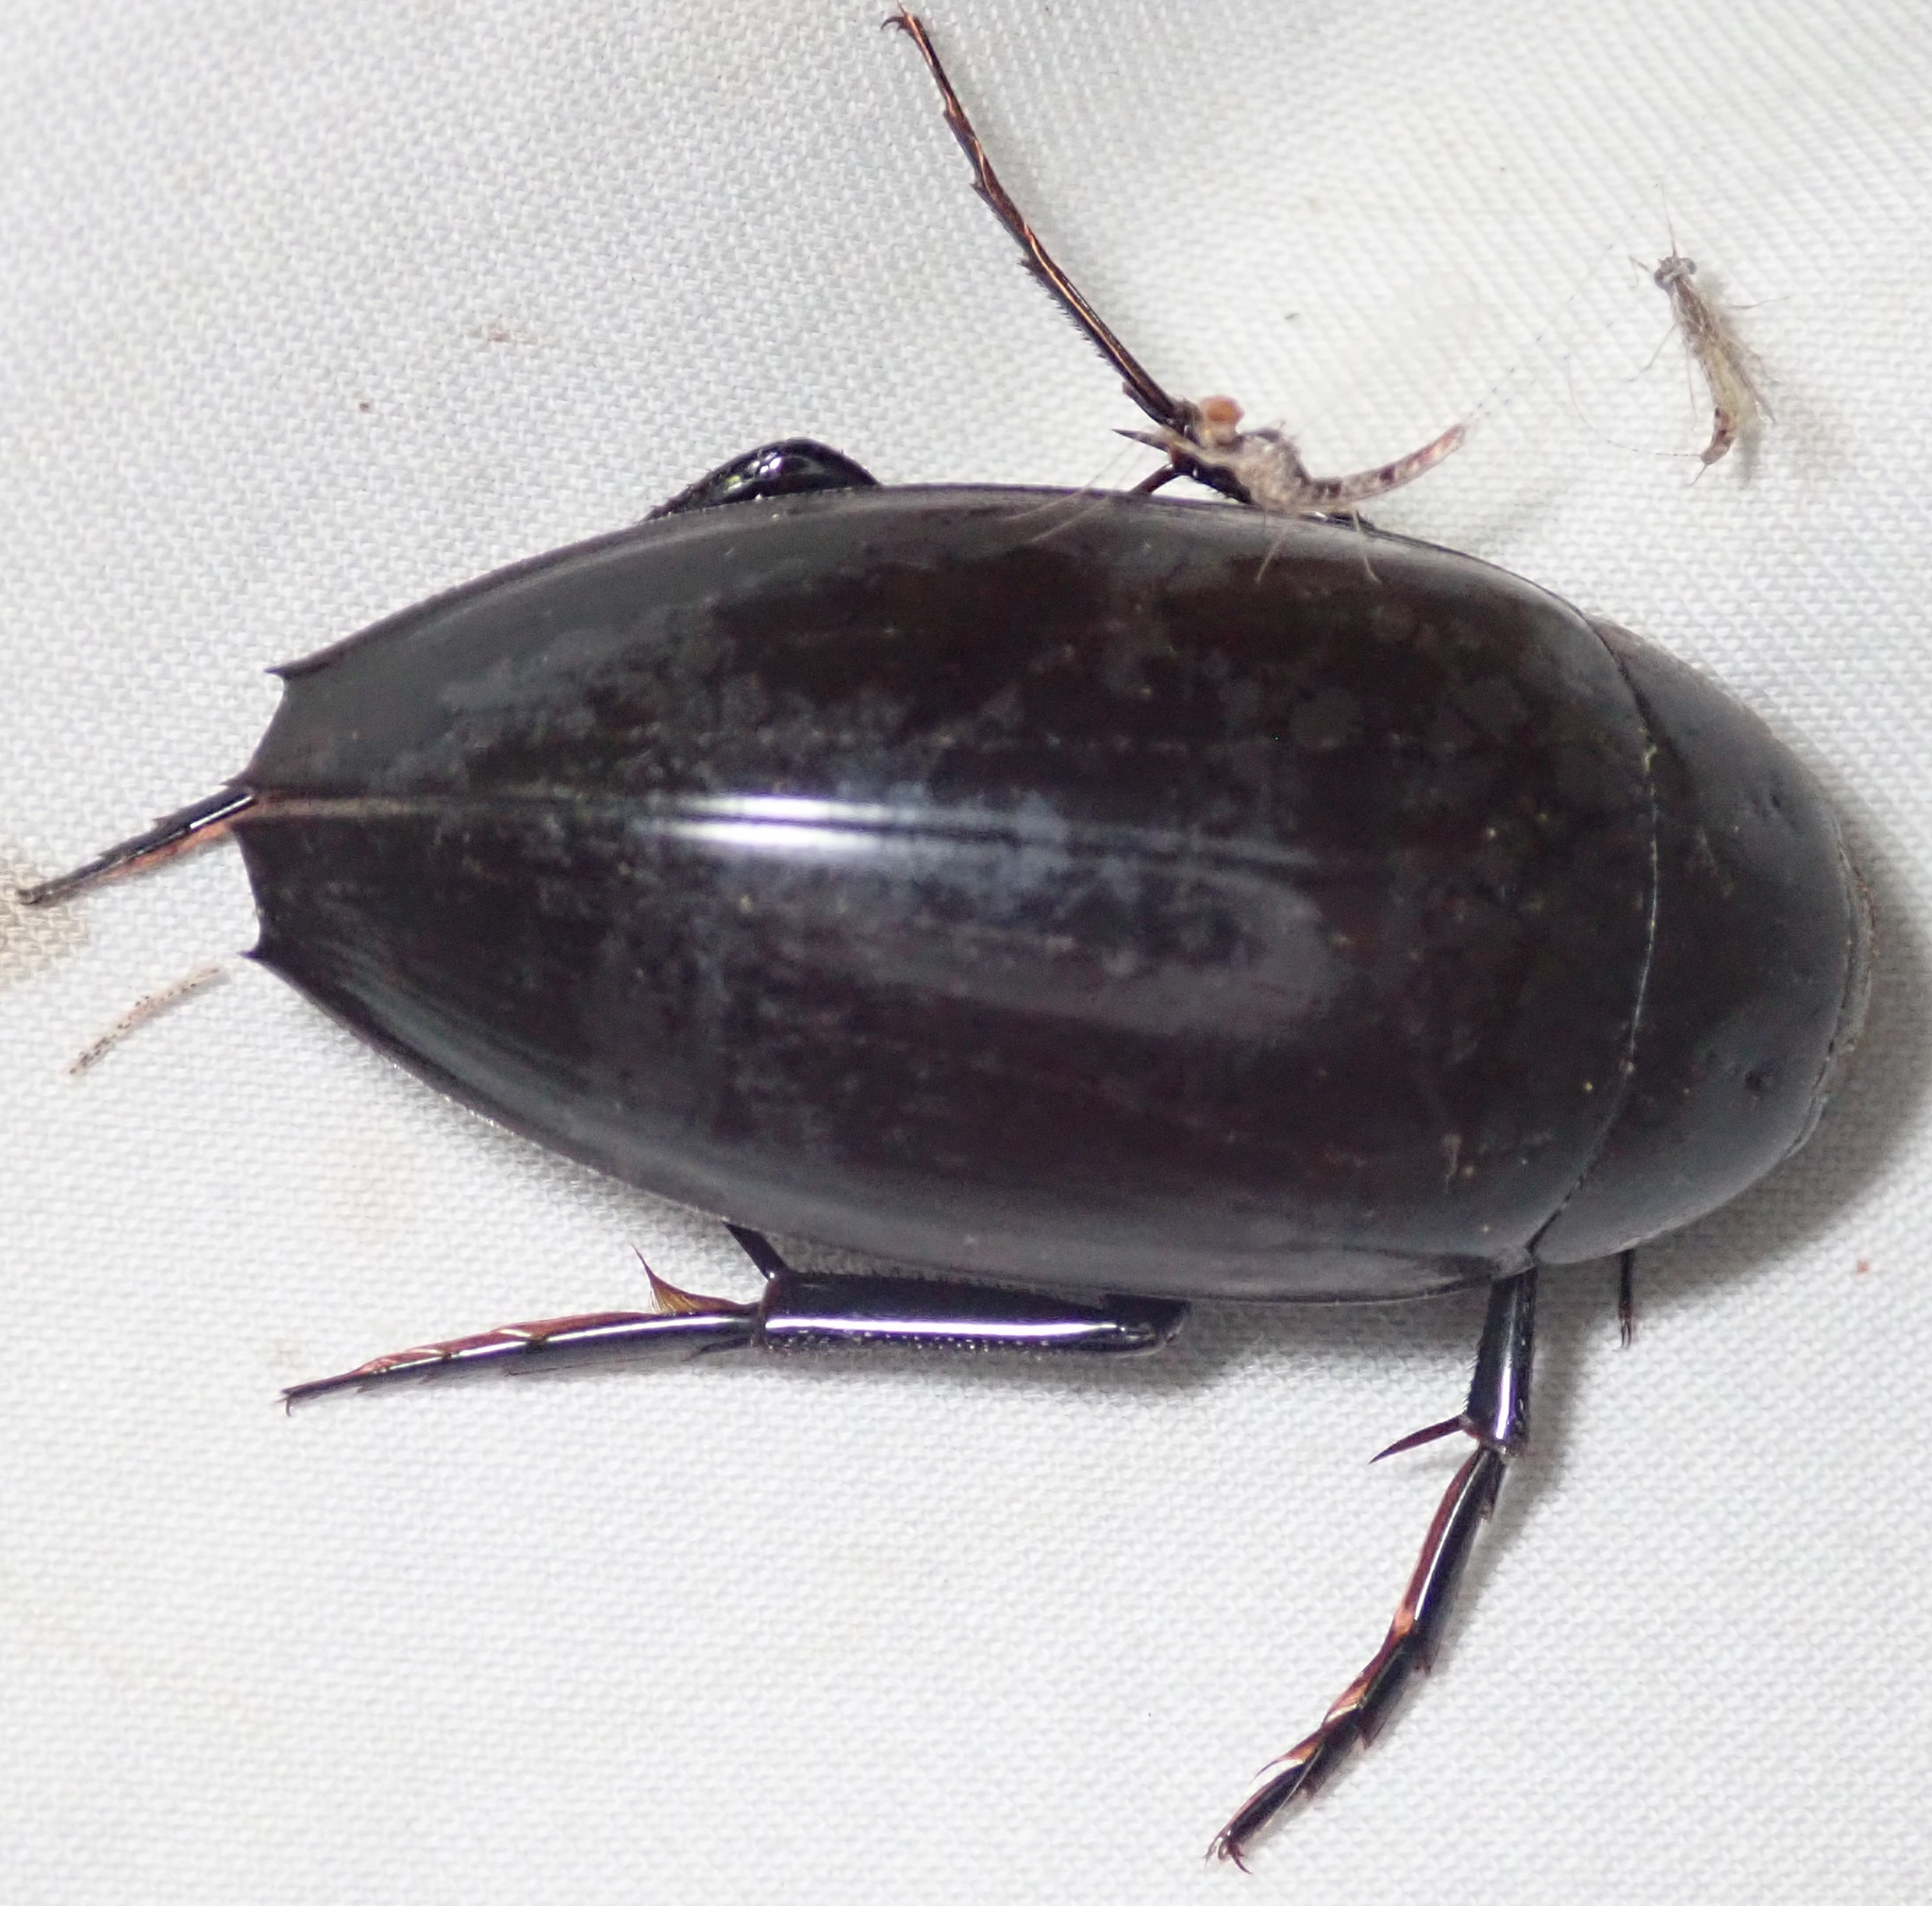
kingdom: Animalia
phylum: Arthropoda
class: Insecta
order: Coleoptera
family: Hydrophilidae
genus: Hydrophilus
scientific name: Hydrophilus aculeatus
